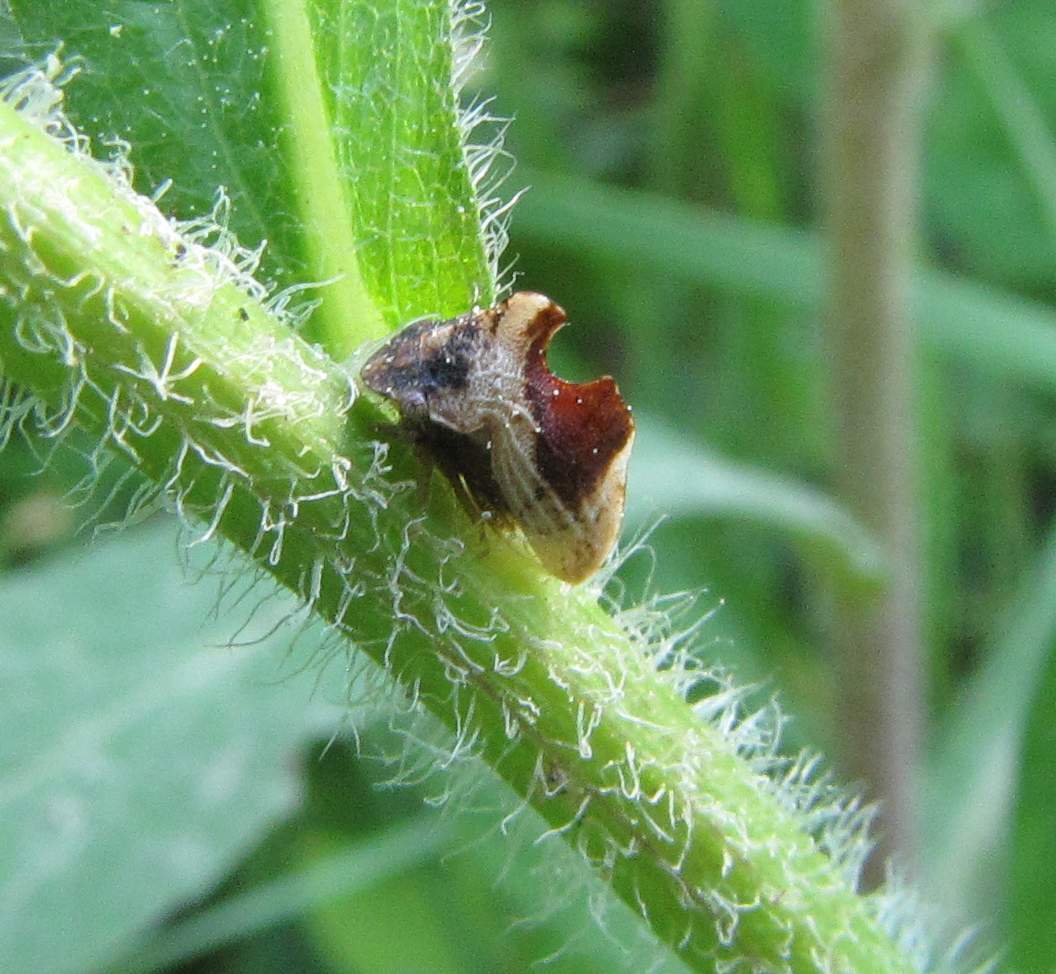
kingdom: Animalia
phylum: Arthropoda
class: Insecta
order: Hemiptera
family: Membracidae
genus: Entylia
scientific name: Entylia carinata
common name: Keeled treehopper
